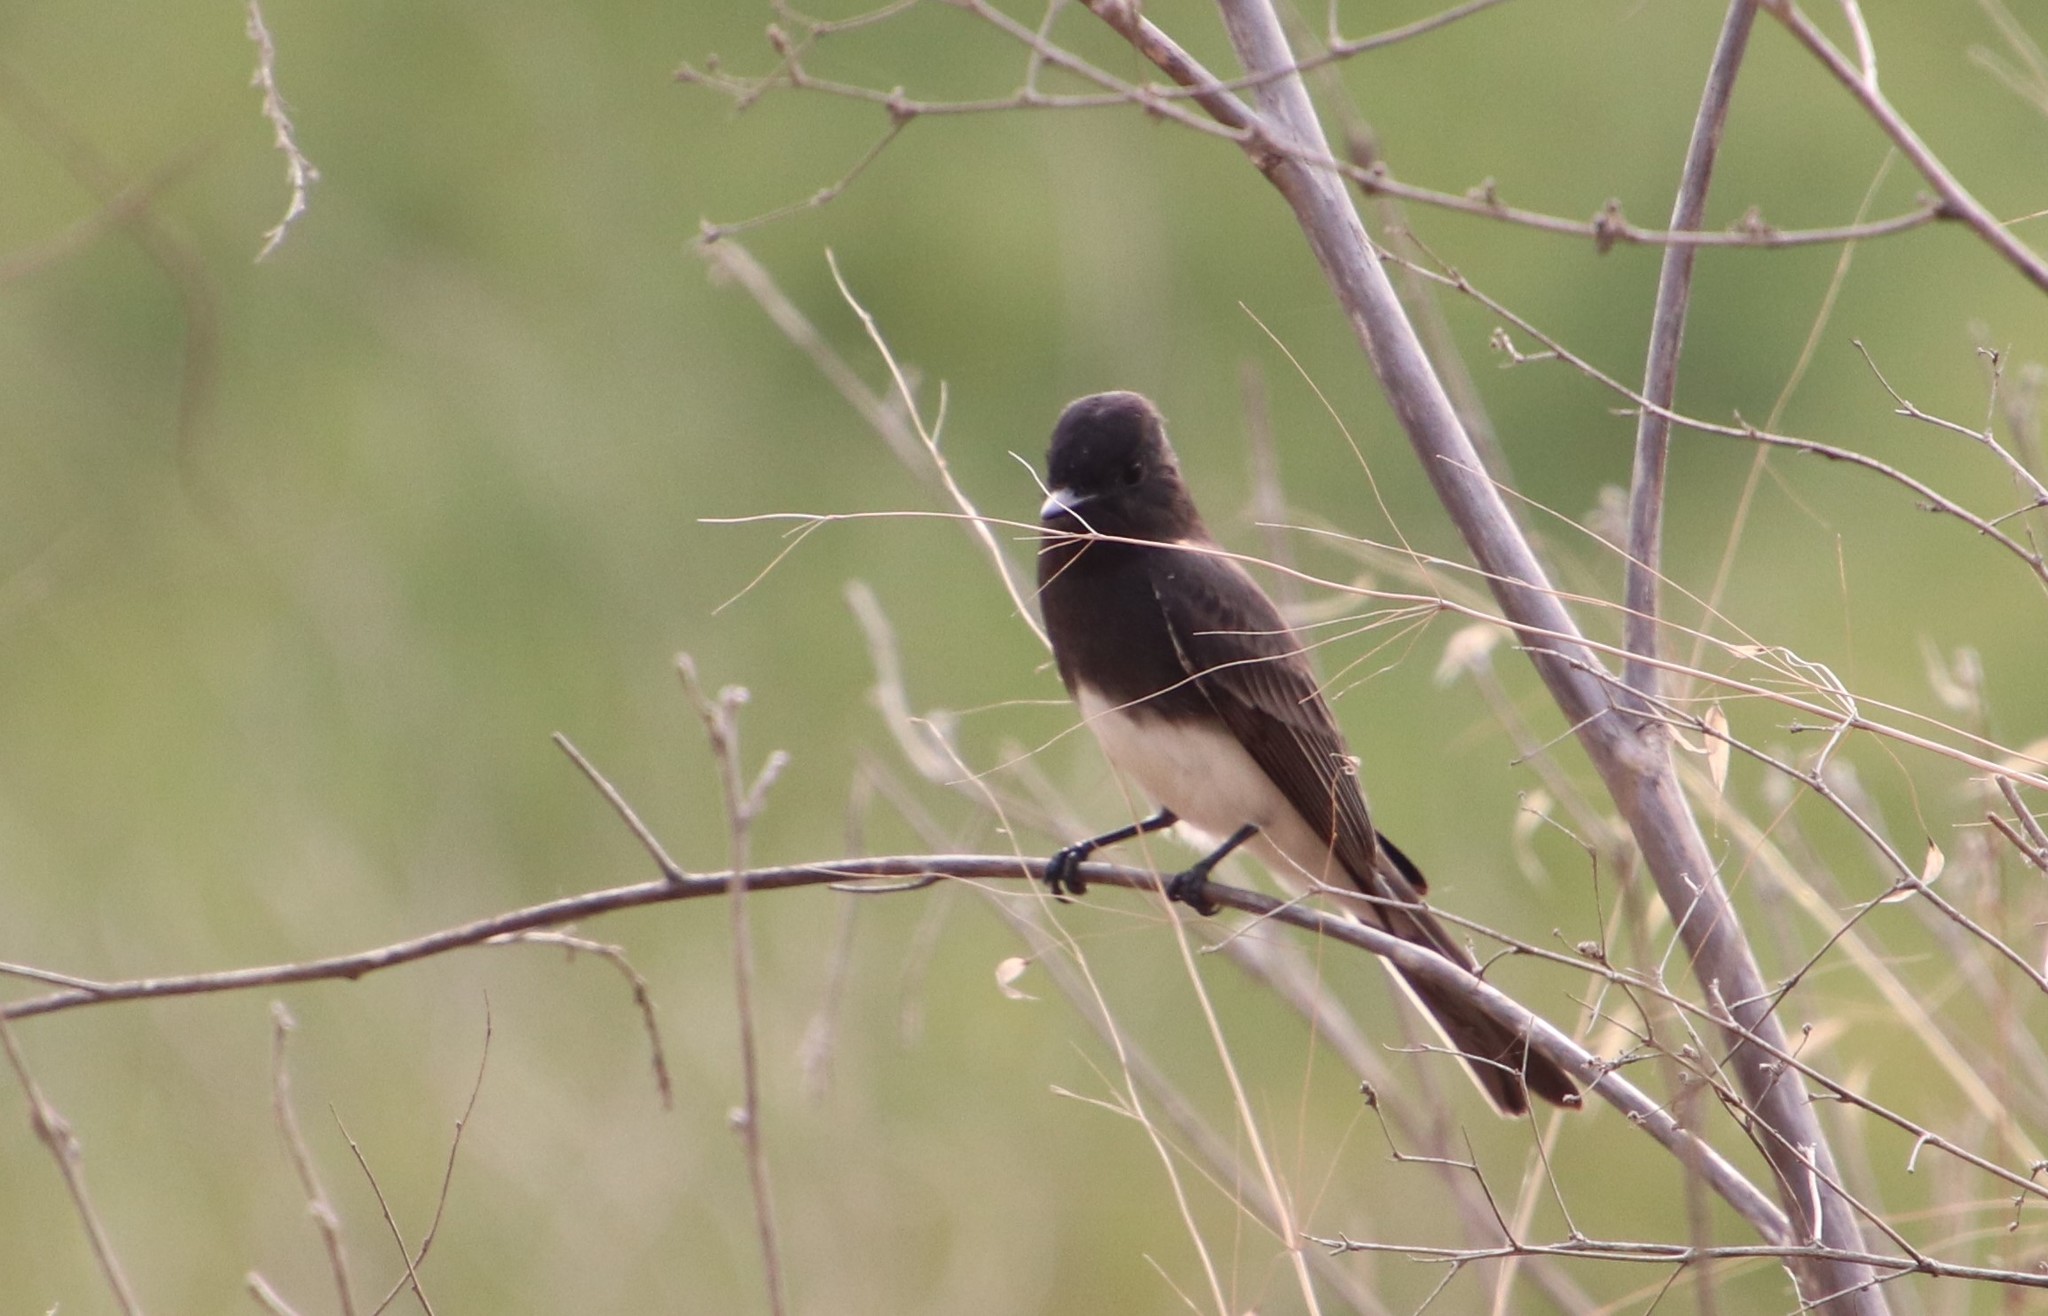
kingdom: Animalia
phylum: Chordata
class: Aves
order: Passeriformes
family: Tyrannidae
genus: Sayornis
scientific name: Sayornis nigricans
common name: Black phoebe
